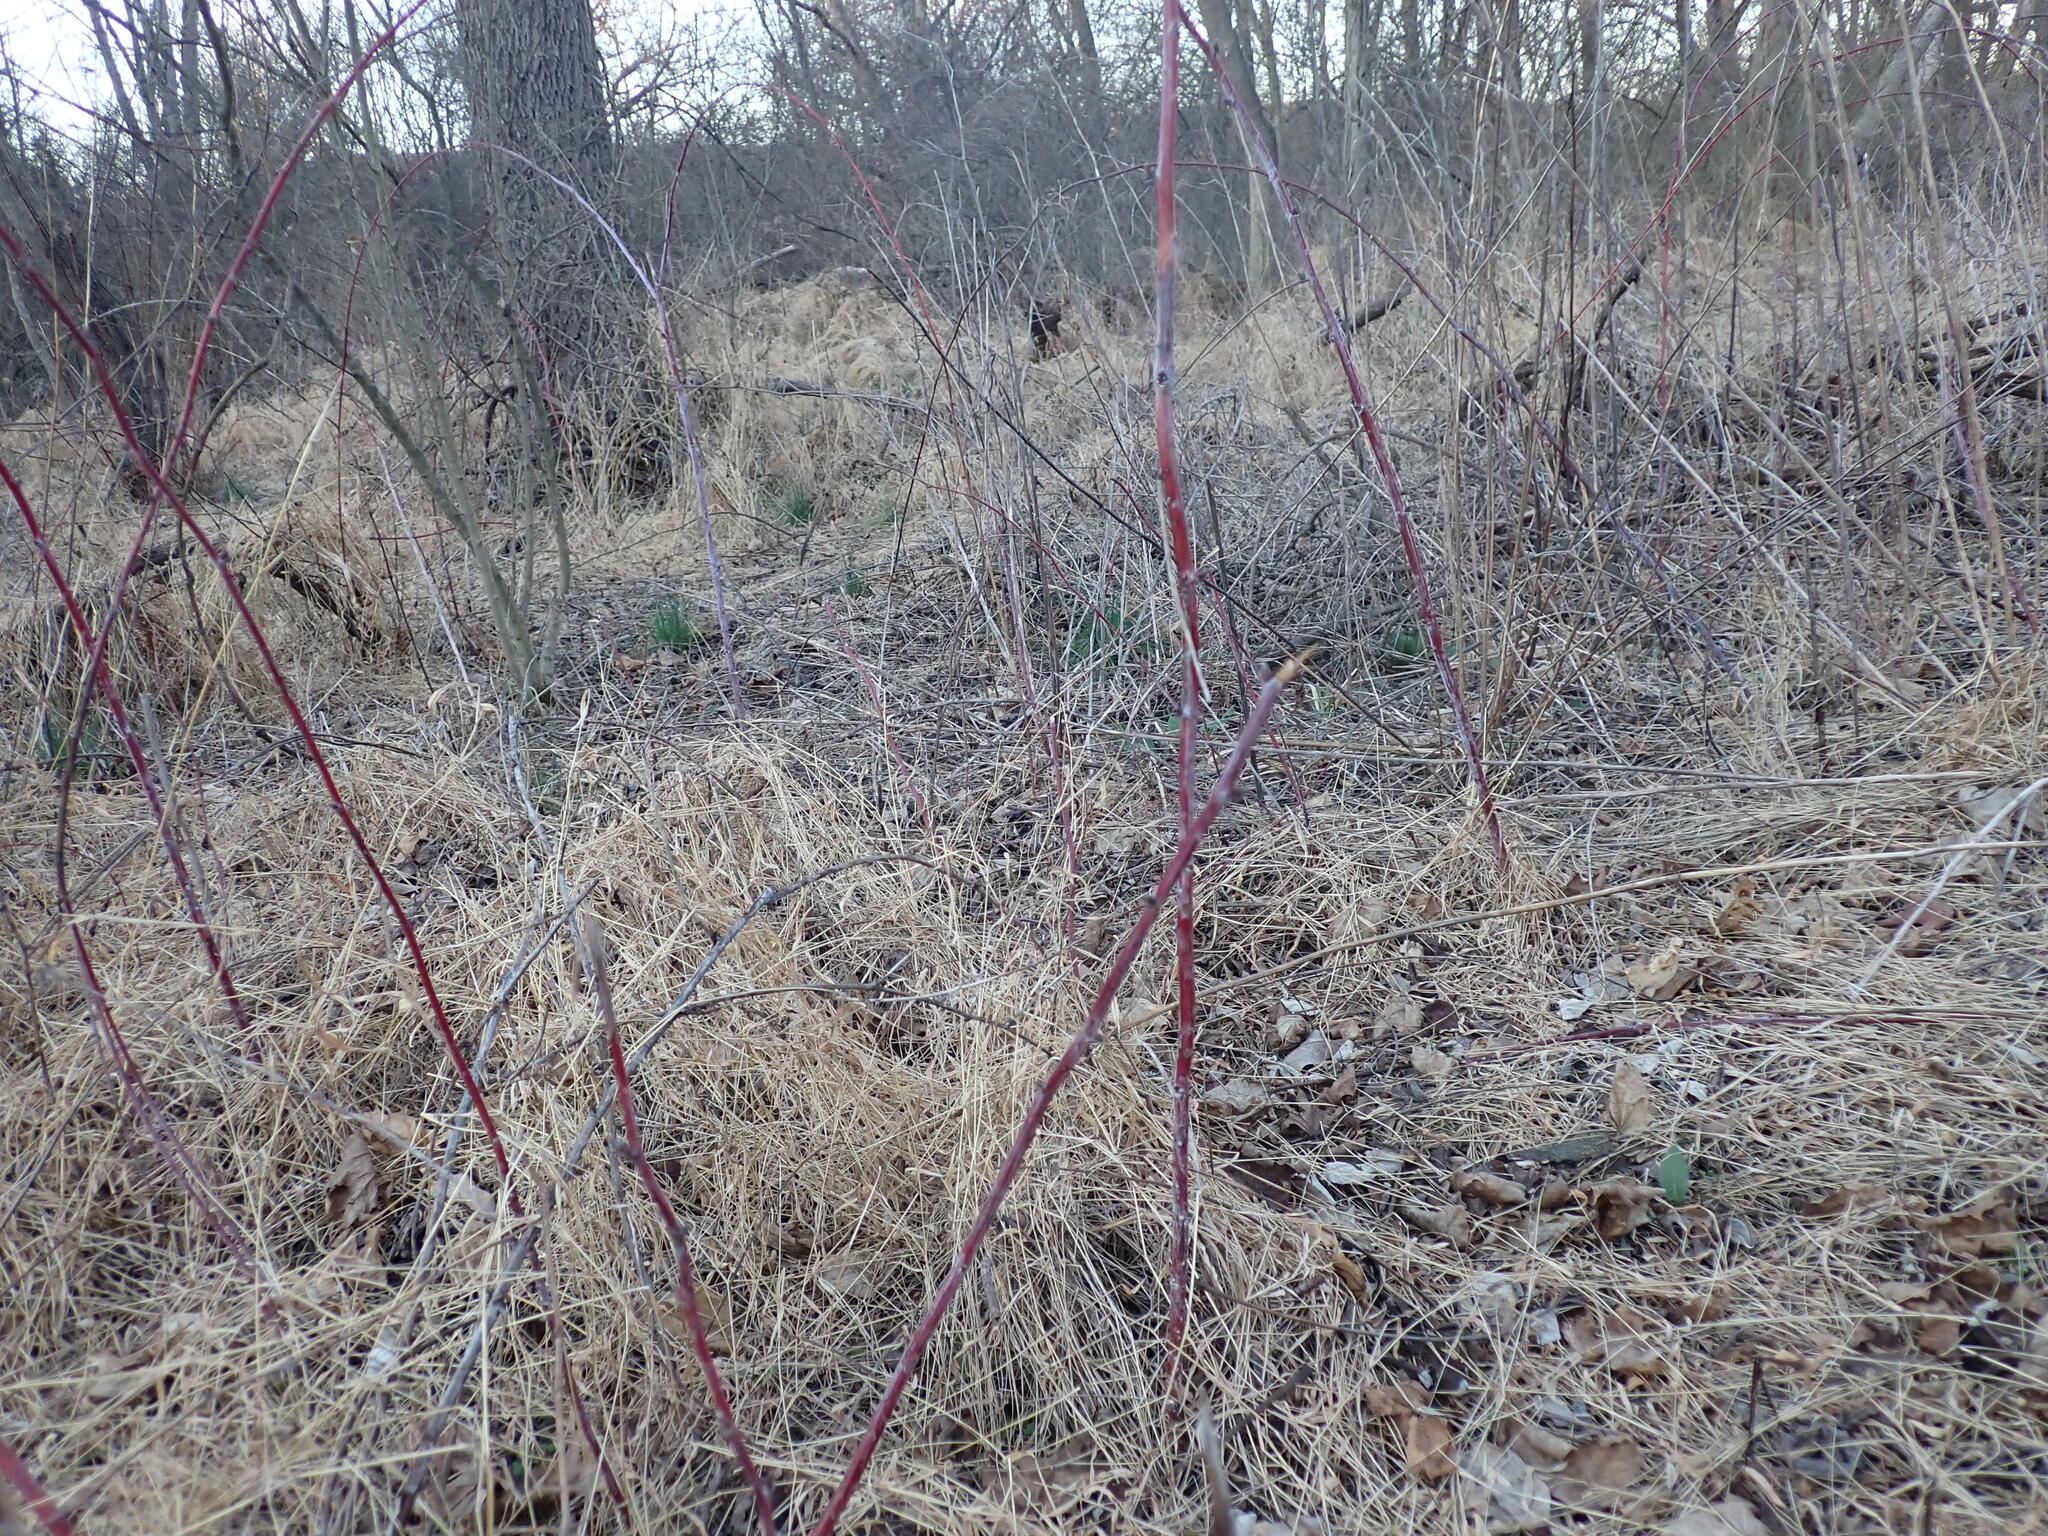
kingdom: Plantae
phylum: Tracheophyta
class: Magnoliopsida
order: Rosales
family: Rosaceae
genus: Rubus
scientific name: Rubus occidentalis
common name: Black raspberry
